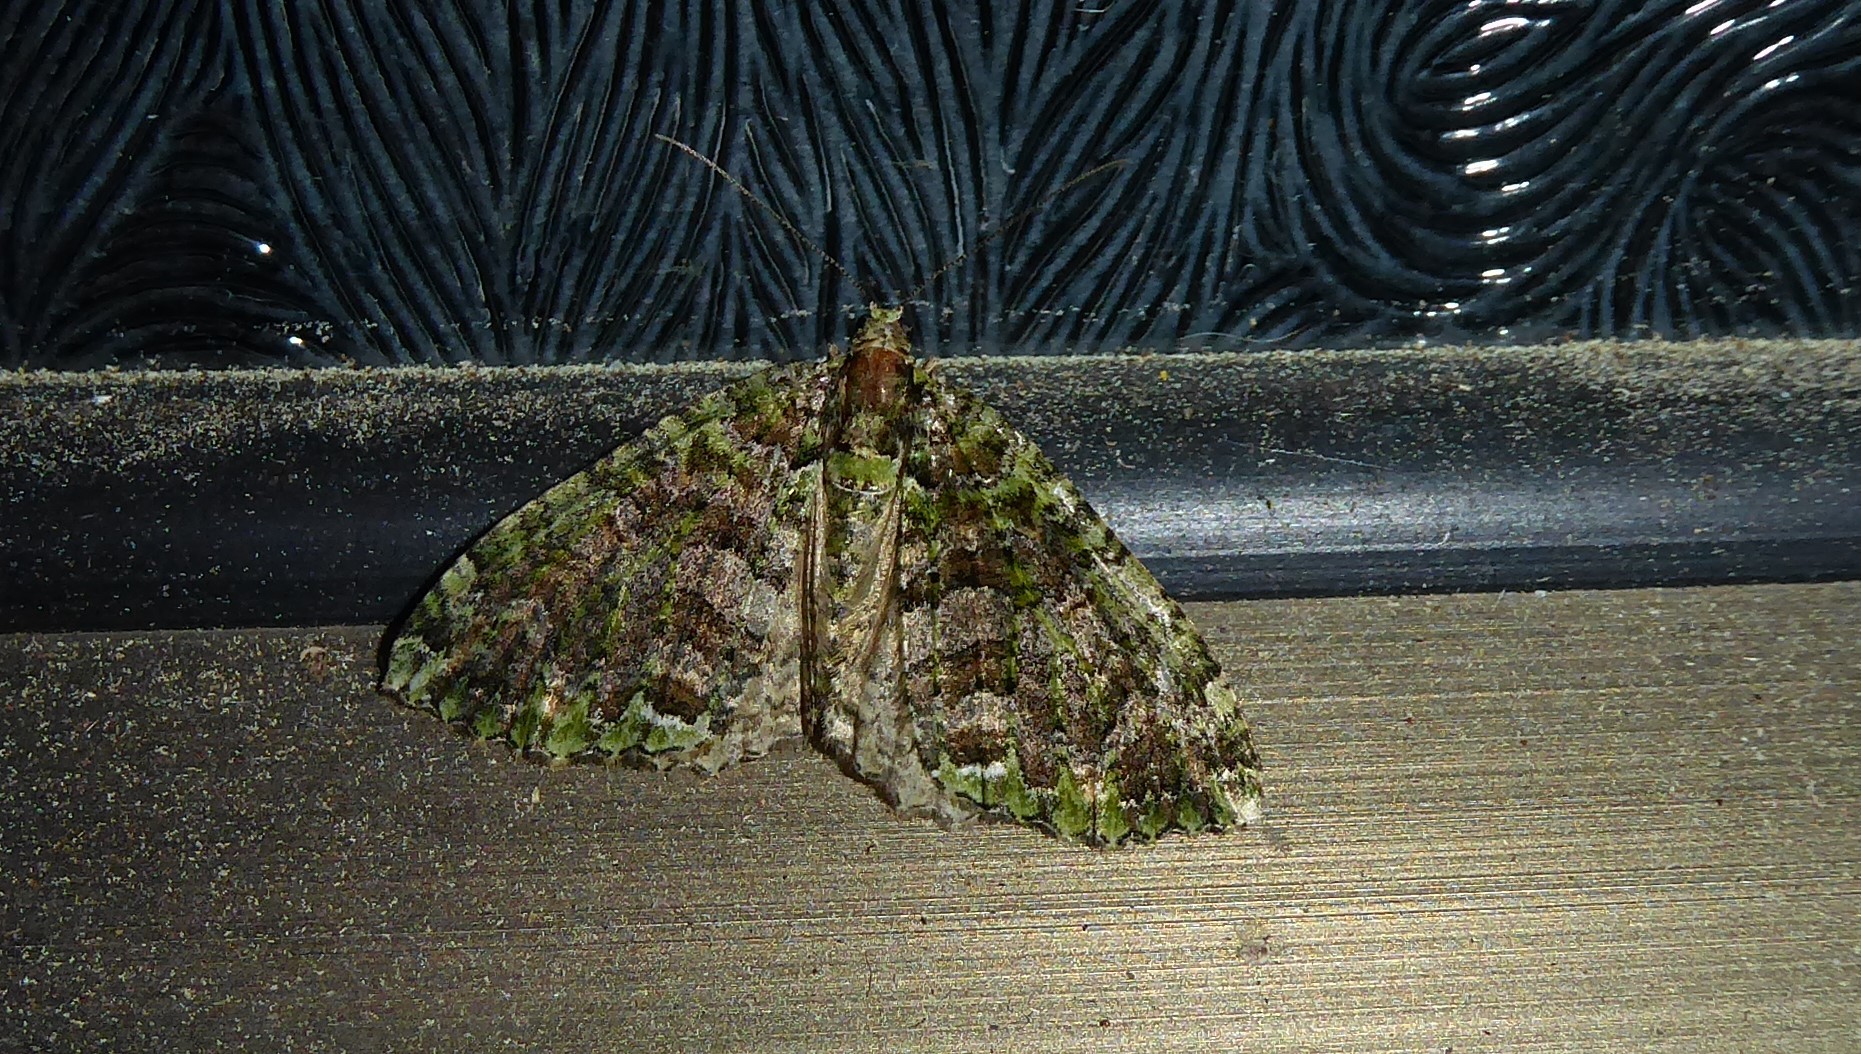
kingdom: Animalia
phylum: Arthropoda
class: Insecta
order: Lepidoptera
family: Geometridae
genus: Austrocidaria
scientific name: Austrocidaria similata
